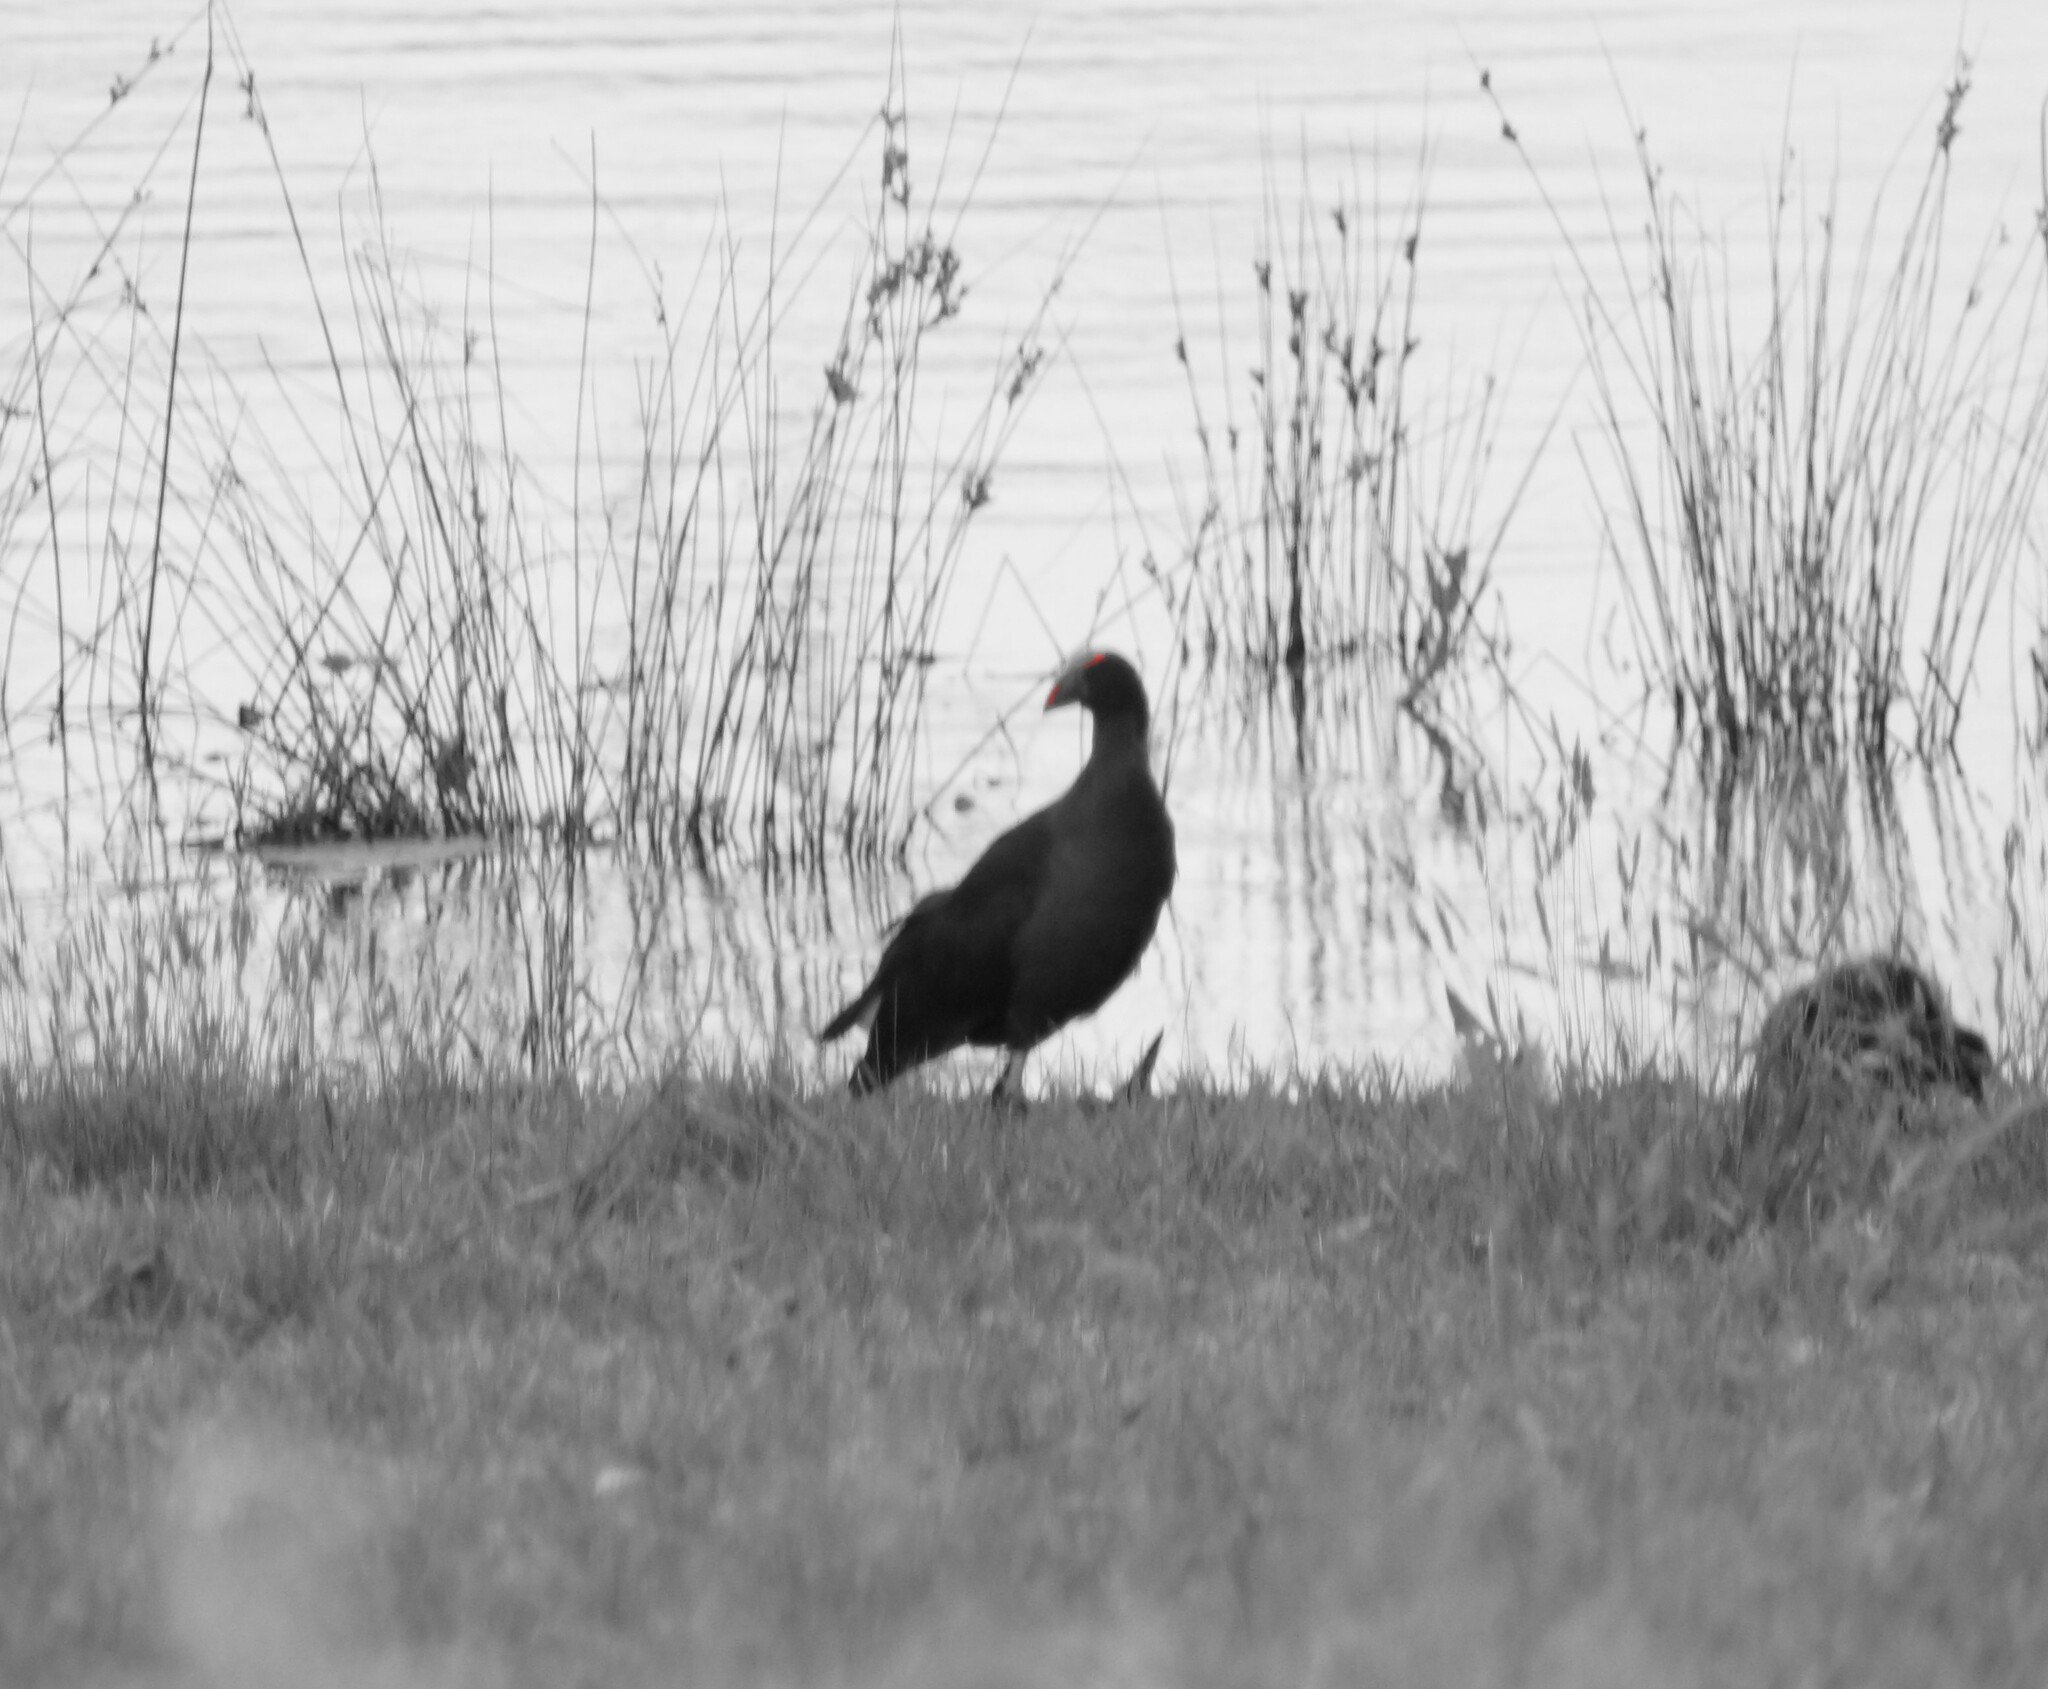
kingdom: Animalia
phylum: Chordata
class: Aves
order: Gruiformes
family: Rallidae
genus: Porphyrio
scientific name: Porphyrio melanotus
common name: Australasian swamphen
